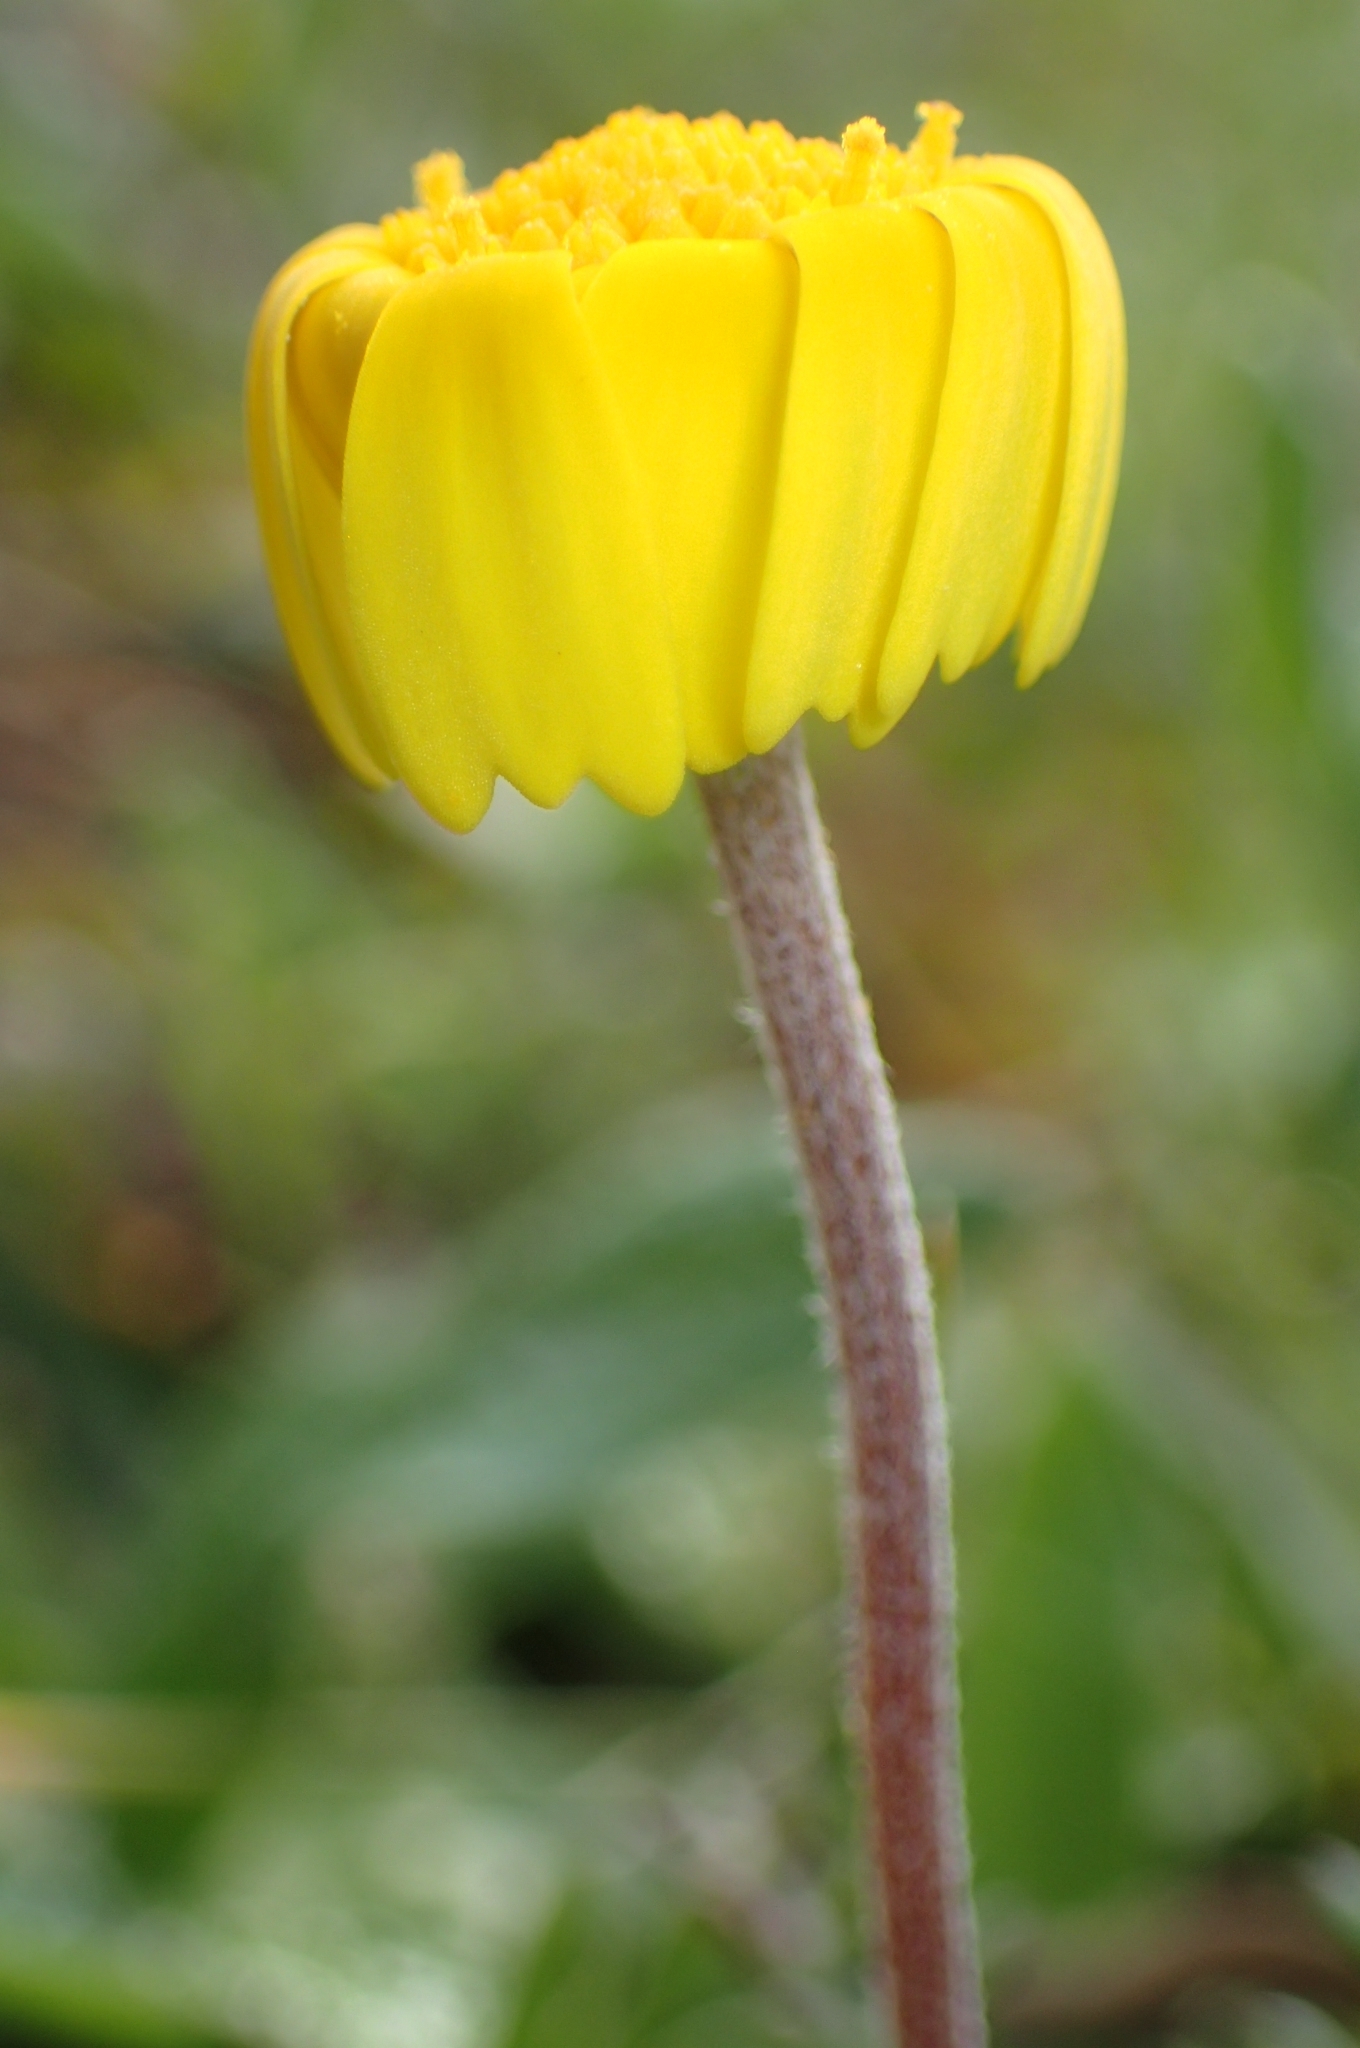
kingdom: Plantae
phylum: Tracheophyta
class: Magnoliopsida
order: Asterales
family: Asteraceae
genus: Prolongoa
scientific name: Prolongoa hispanica
